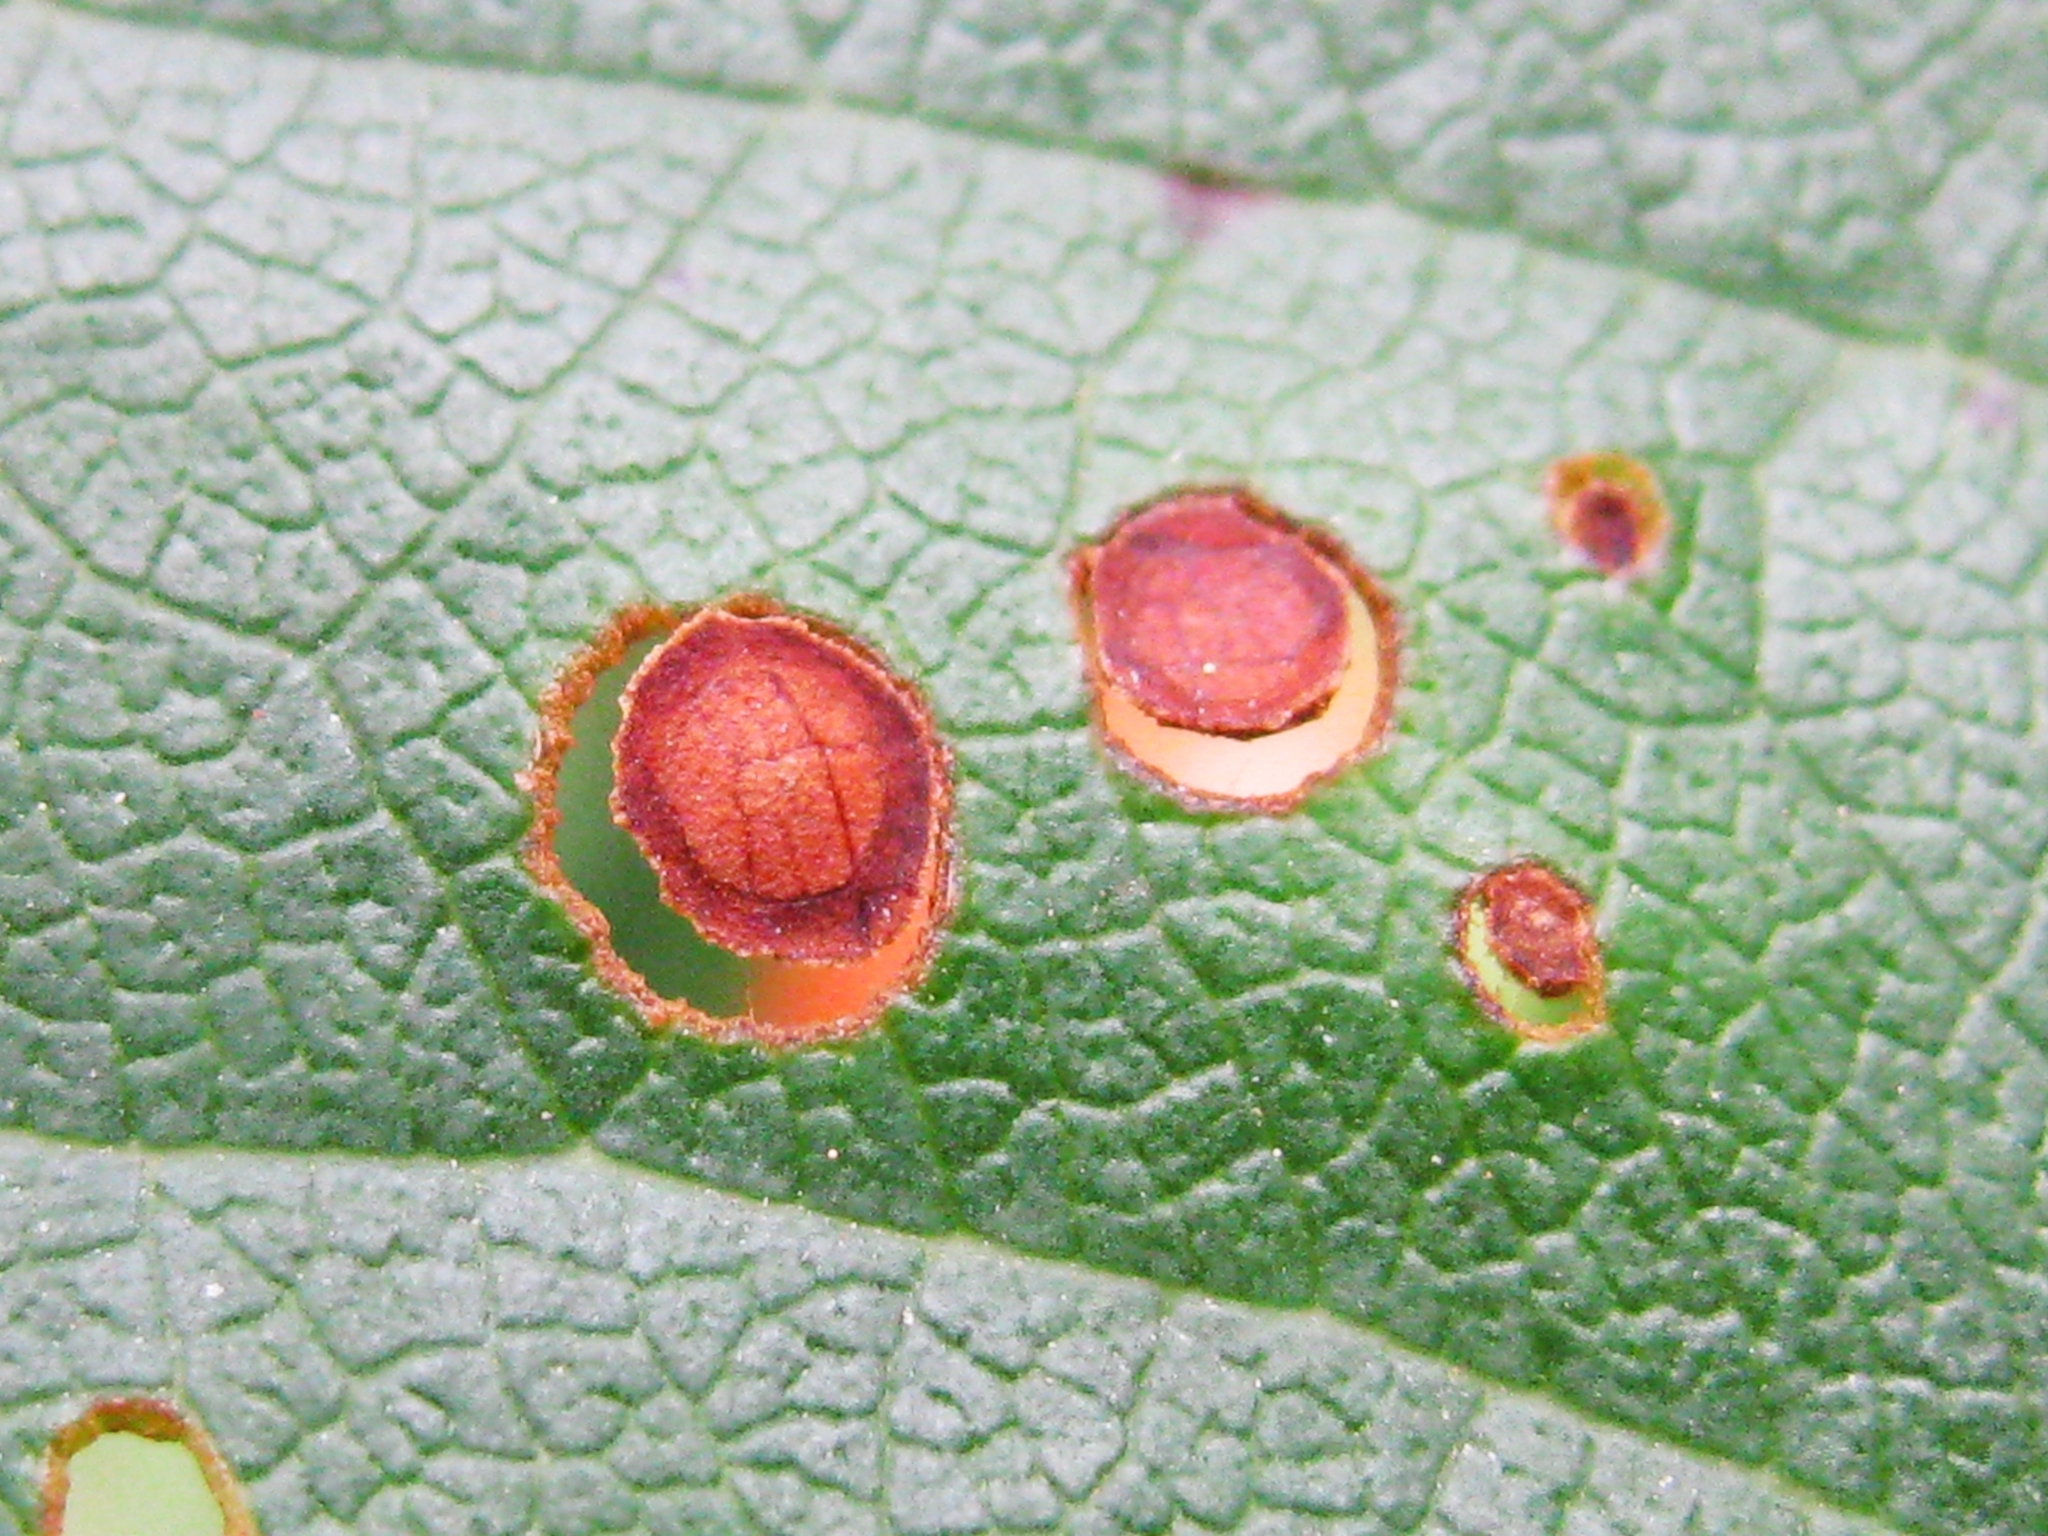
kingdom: Fungi
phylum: Ascomycota
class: Dothideomycetes
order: Mycosphaerellales
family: Mycosphaerellaceae
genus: Stigmina
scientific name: Stigmina carpophila
